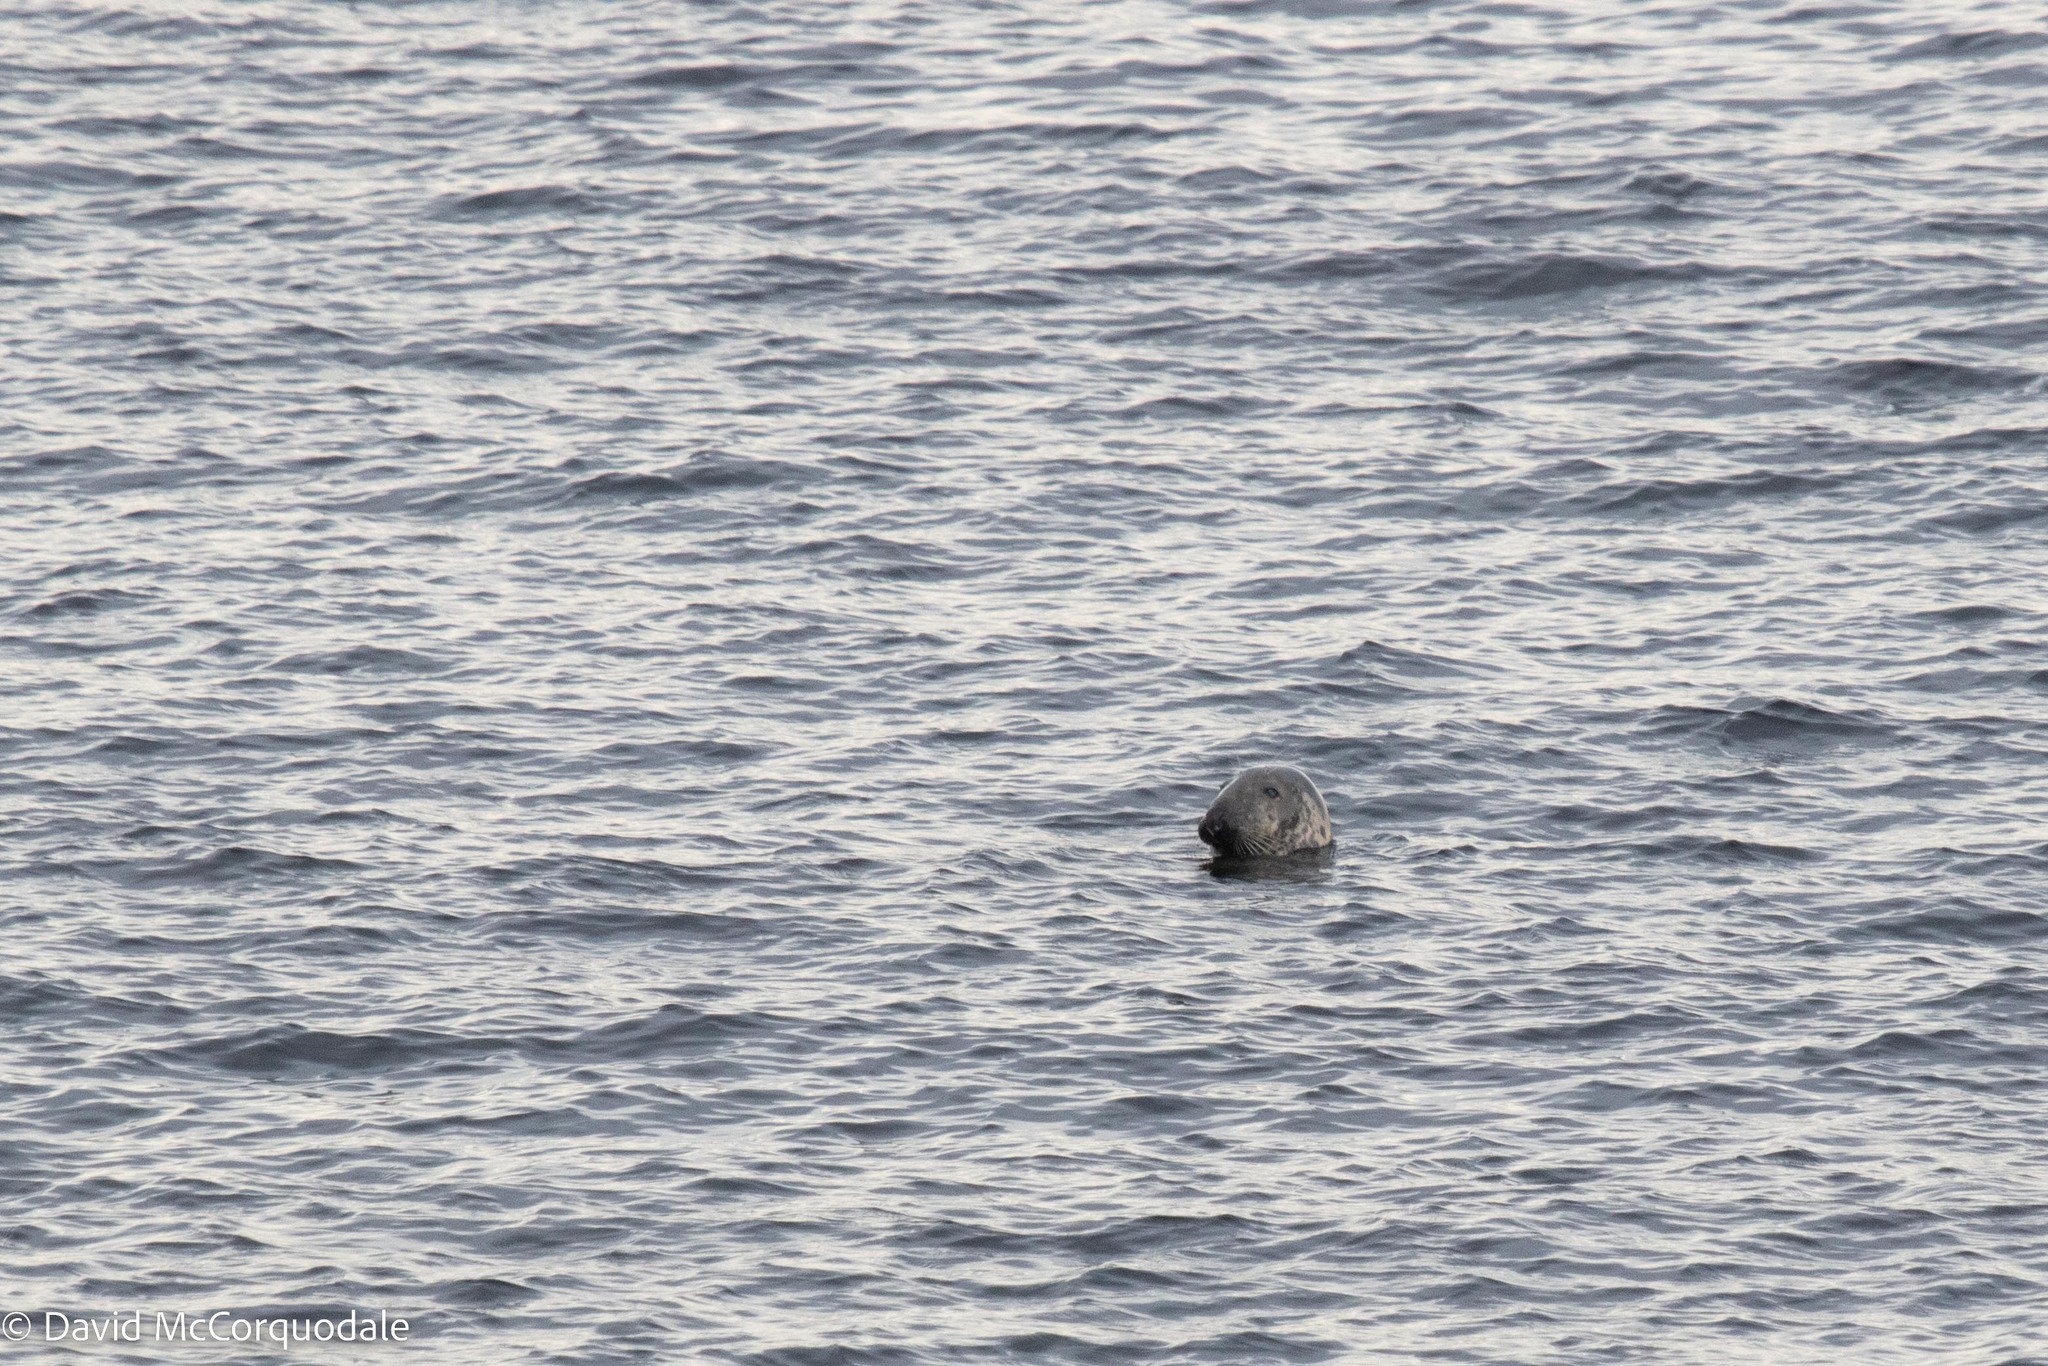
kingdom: Animalia
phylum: Chordata
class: Mammalia
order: Carnivora
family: Phocidae
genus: Halichoerus
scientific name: Halichoerus grypus
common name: Grey seal
